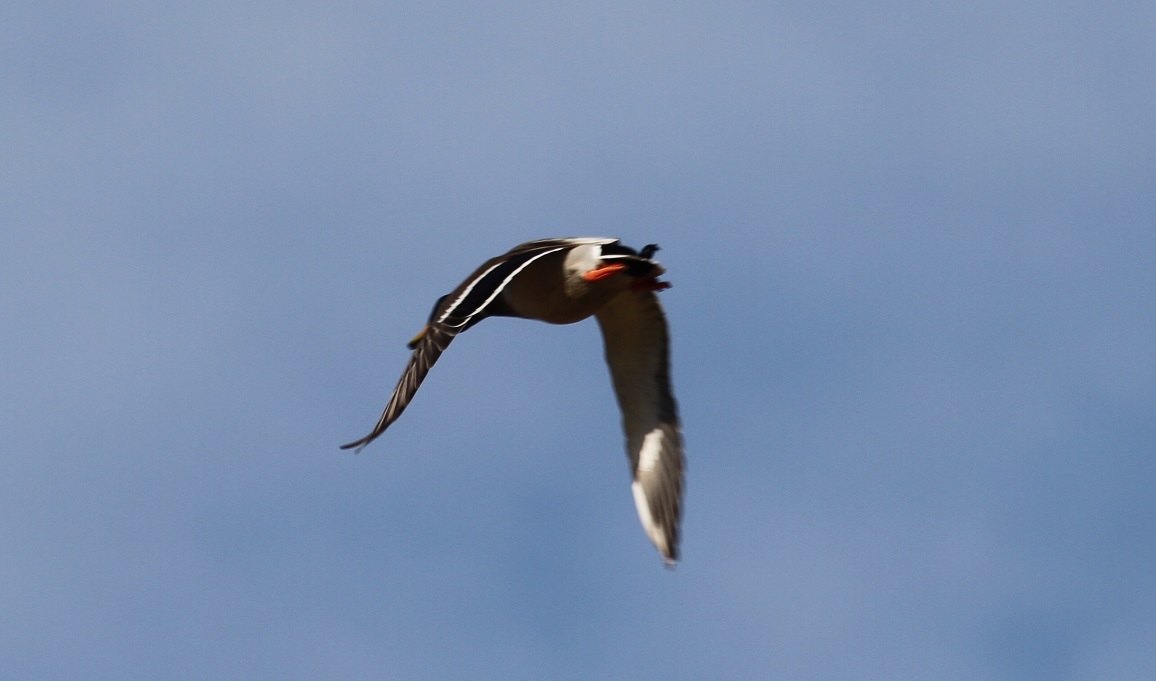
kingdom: Animalia
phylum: Chordata
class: Aves
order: Anseriformes
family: Anatidae
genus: Anas
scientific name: Anas platyrhynchos
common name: Mallard
